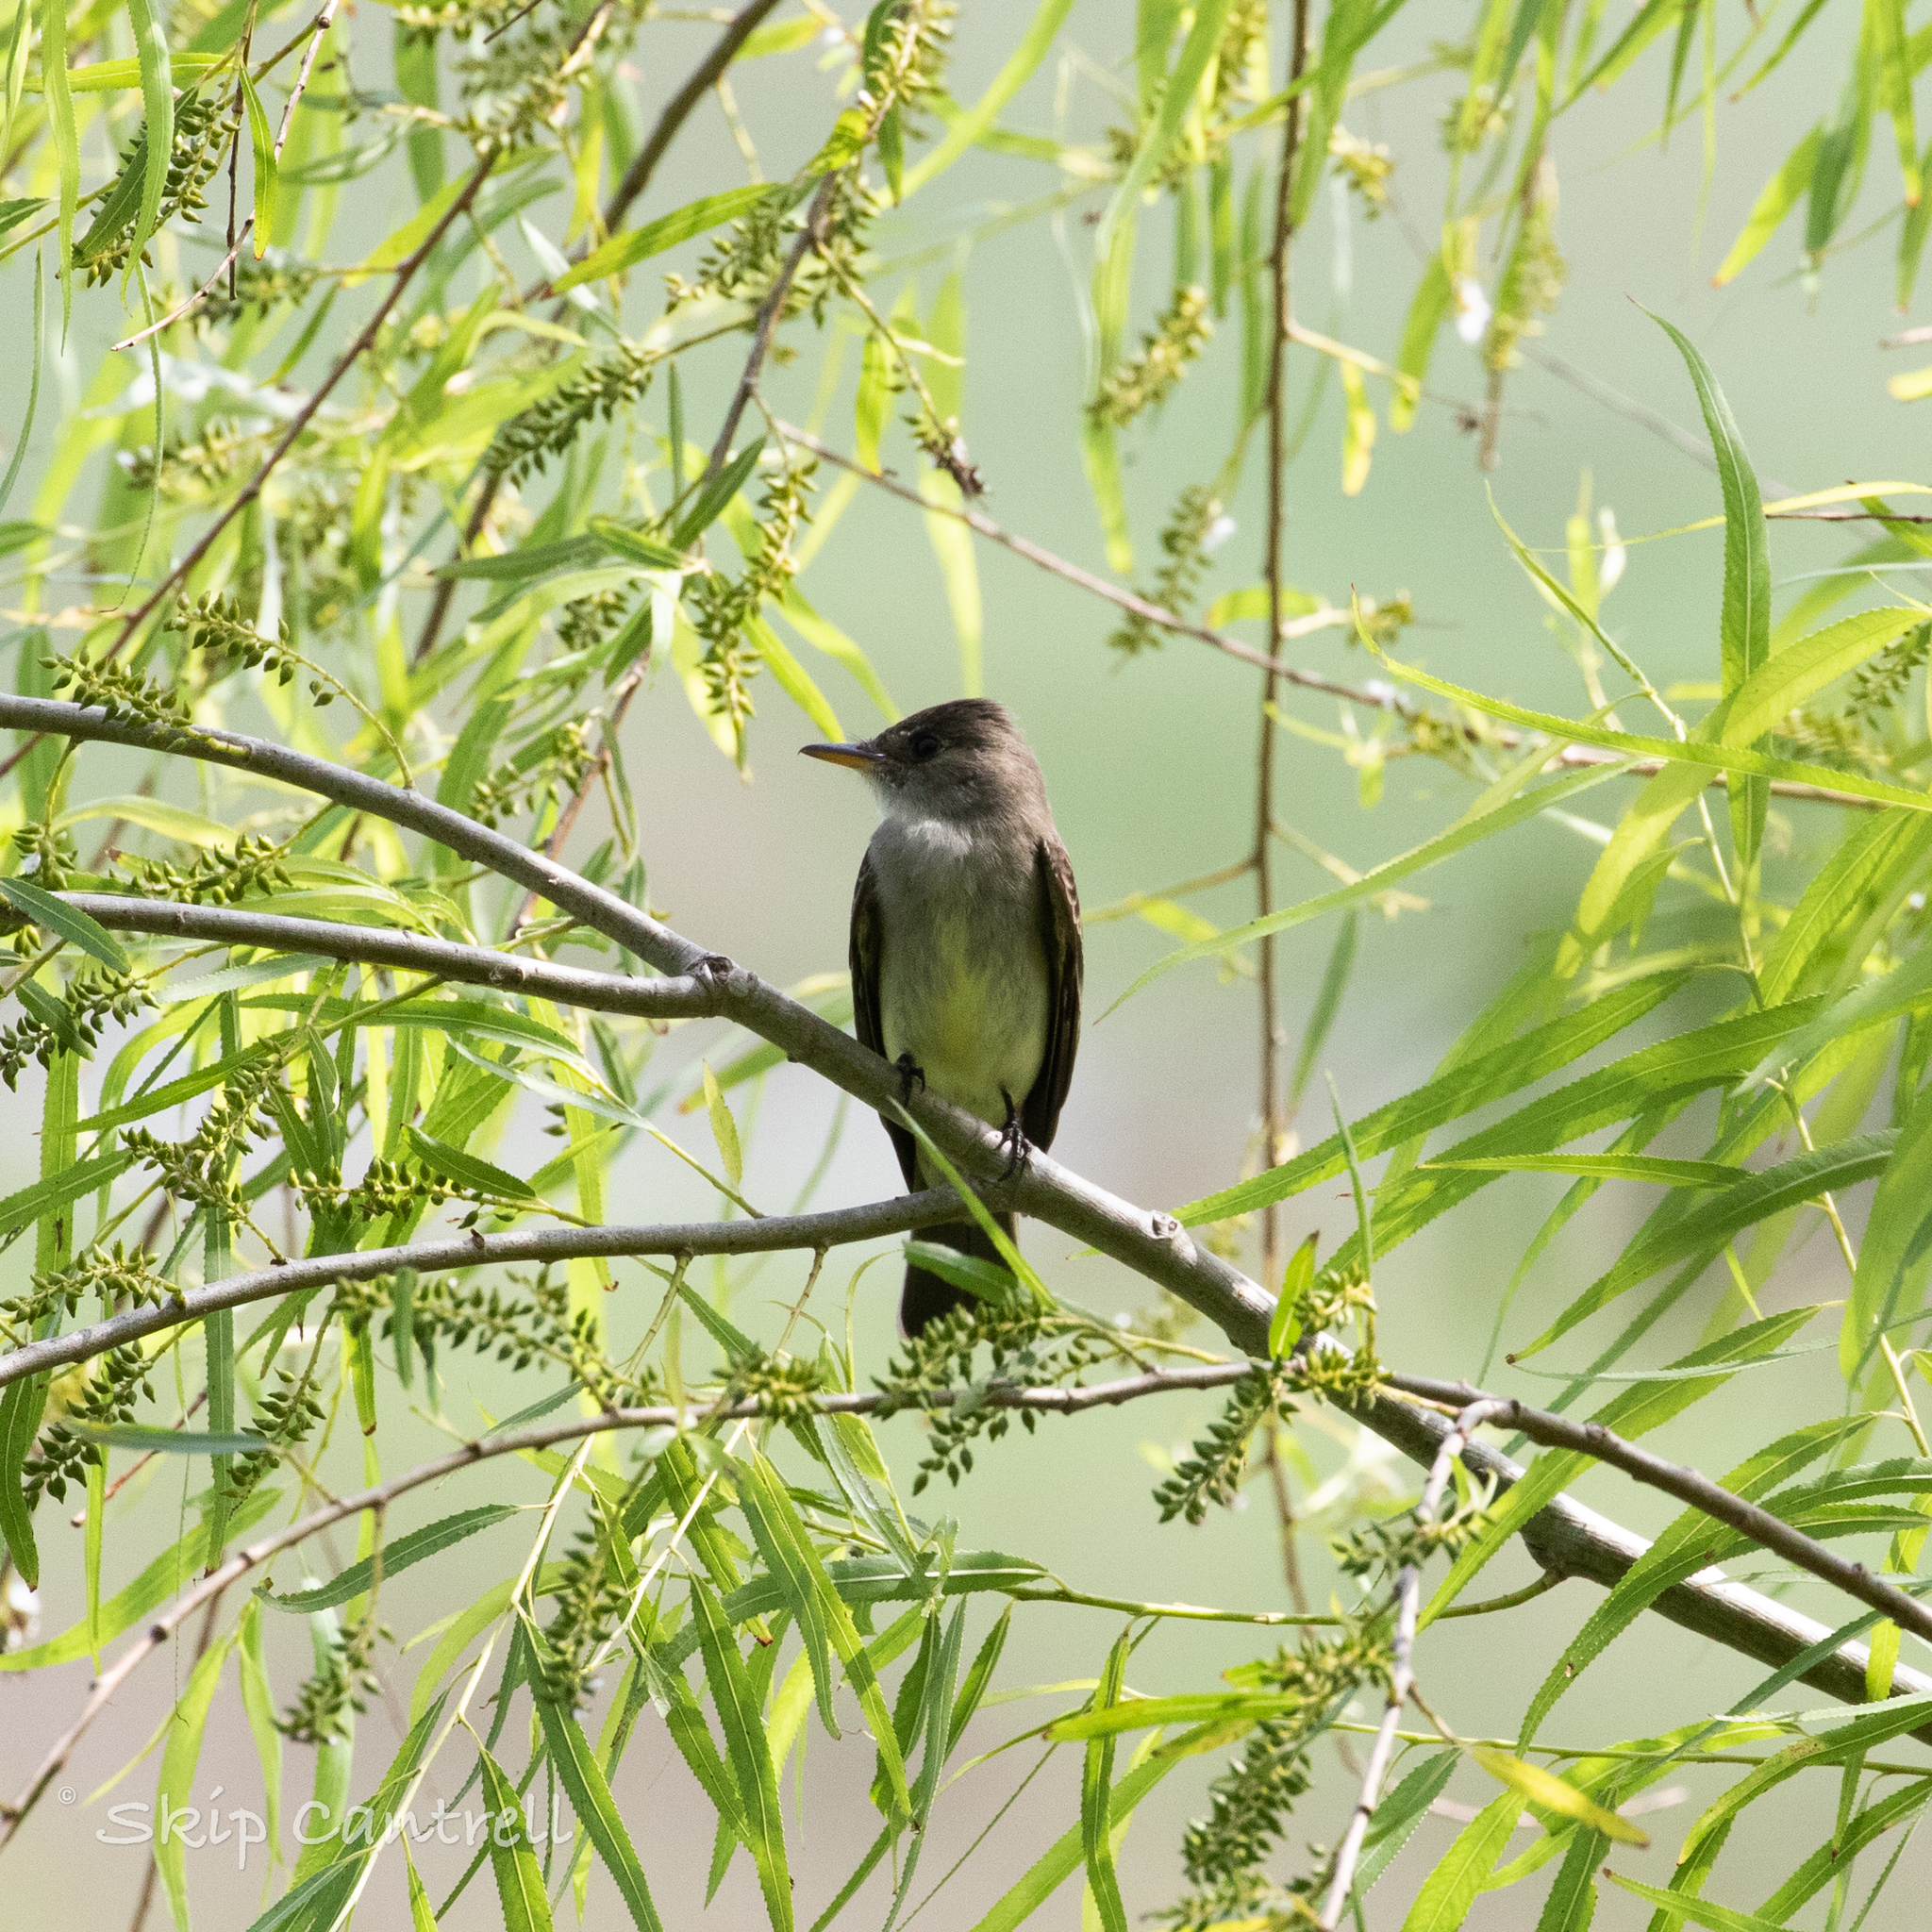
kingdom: Animalia
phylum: Chordata
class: Aves
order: Passeriformes
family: Tyrannidae
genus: Contopus
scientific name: Contopus virens
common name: Eastern wood-pewee
